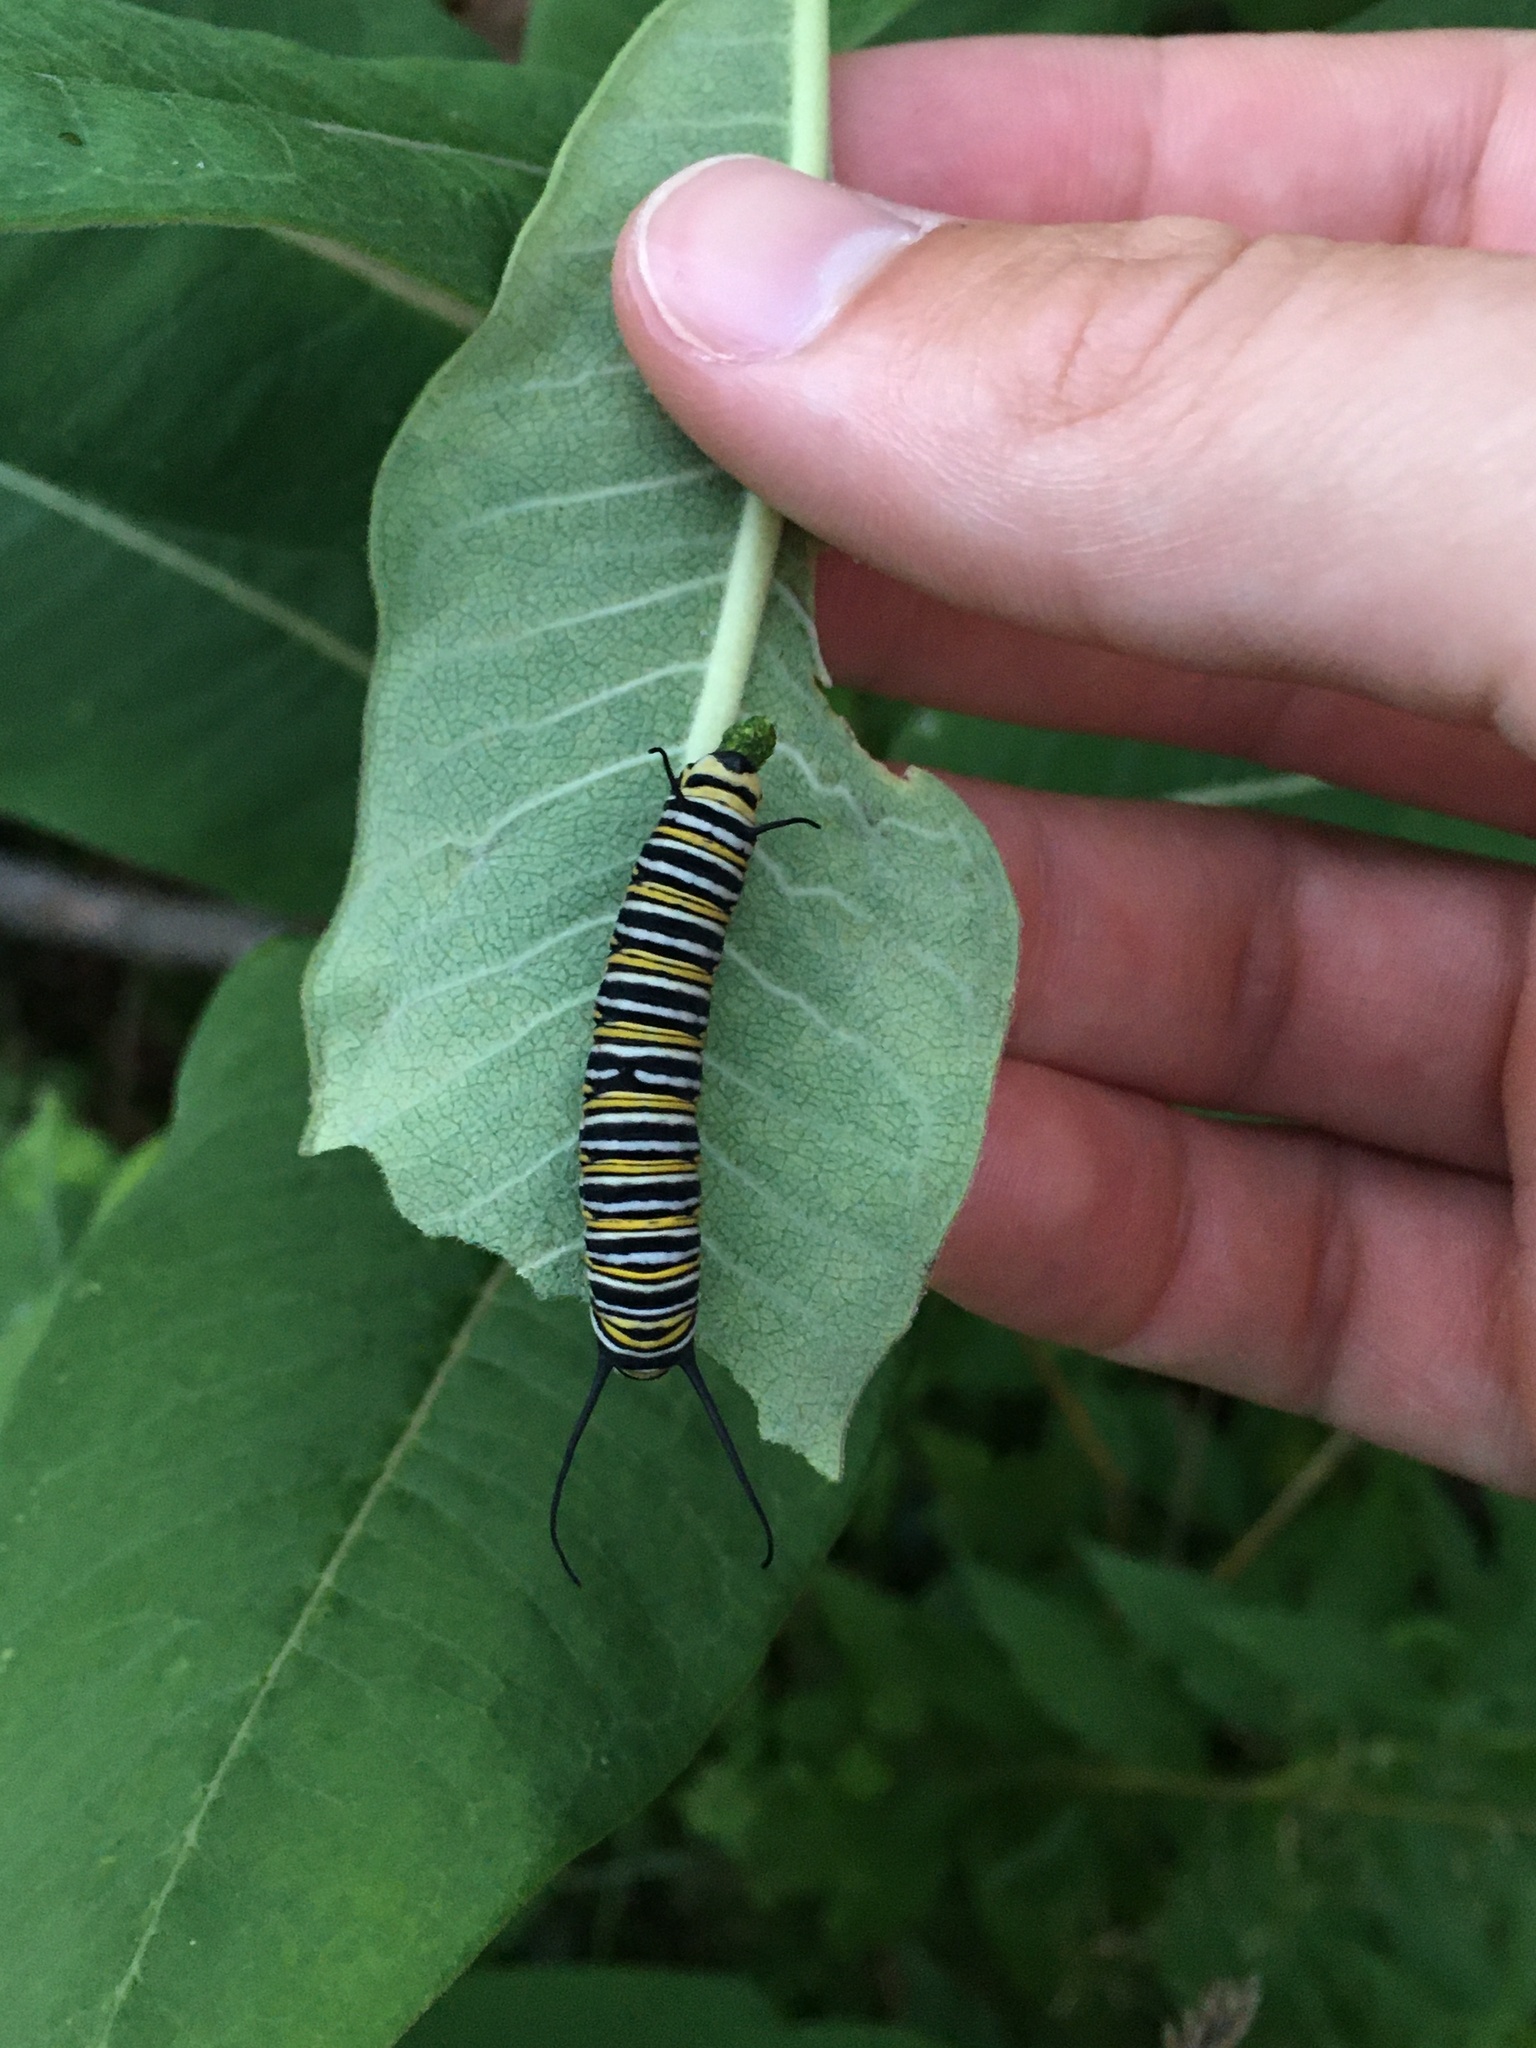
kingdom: Animalia
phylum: Arthropoda
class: Insecta
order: Lepidoptera
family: Nymphalidae
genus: Danaus
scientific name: Danaus plexippus
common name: Monarch
